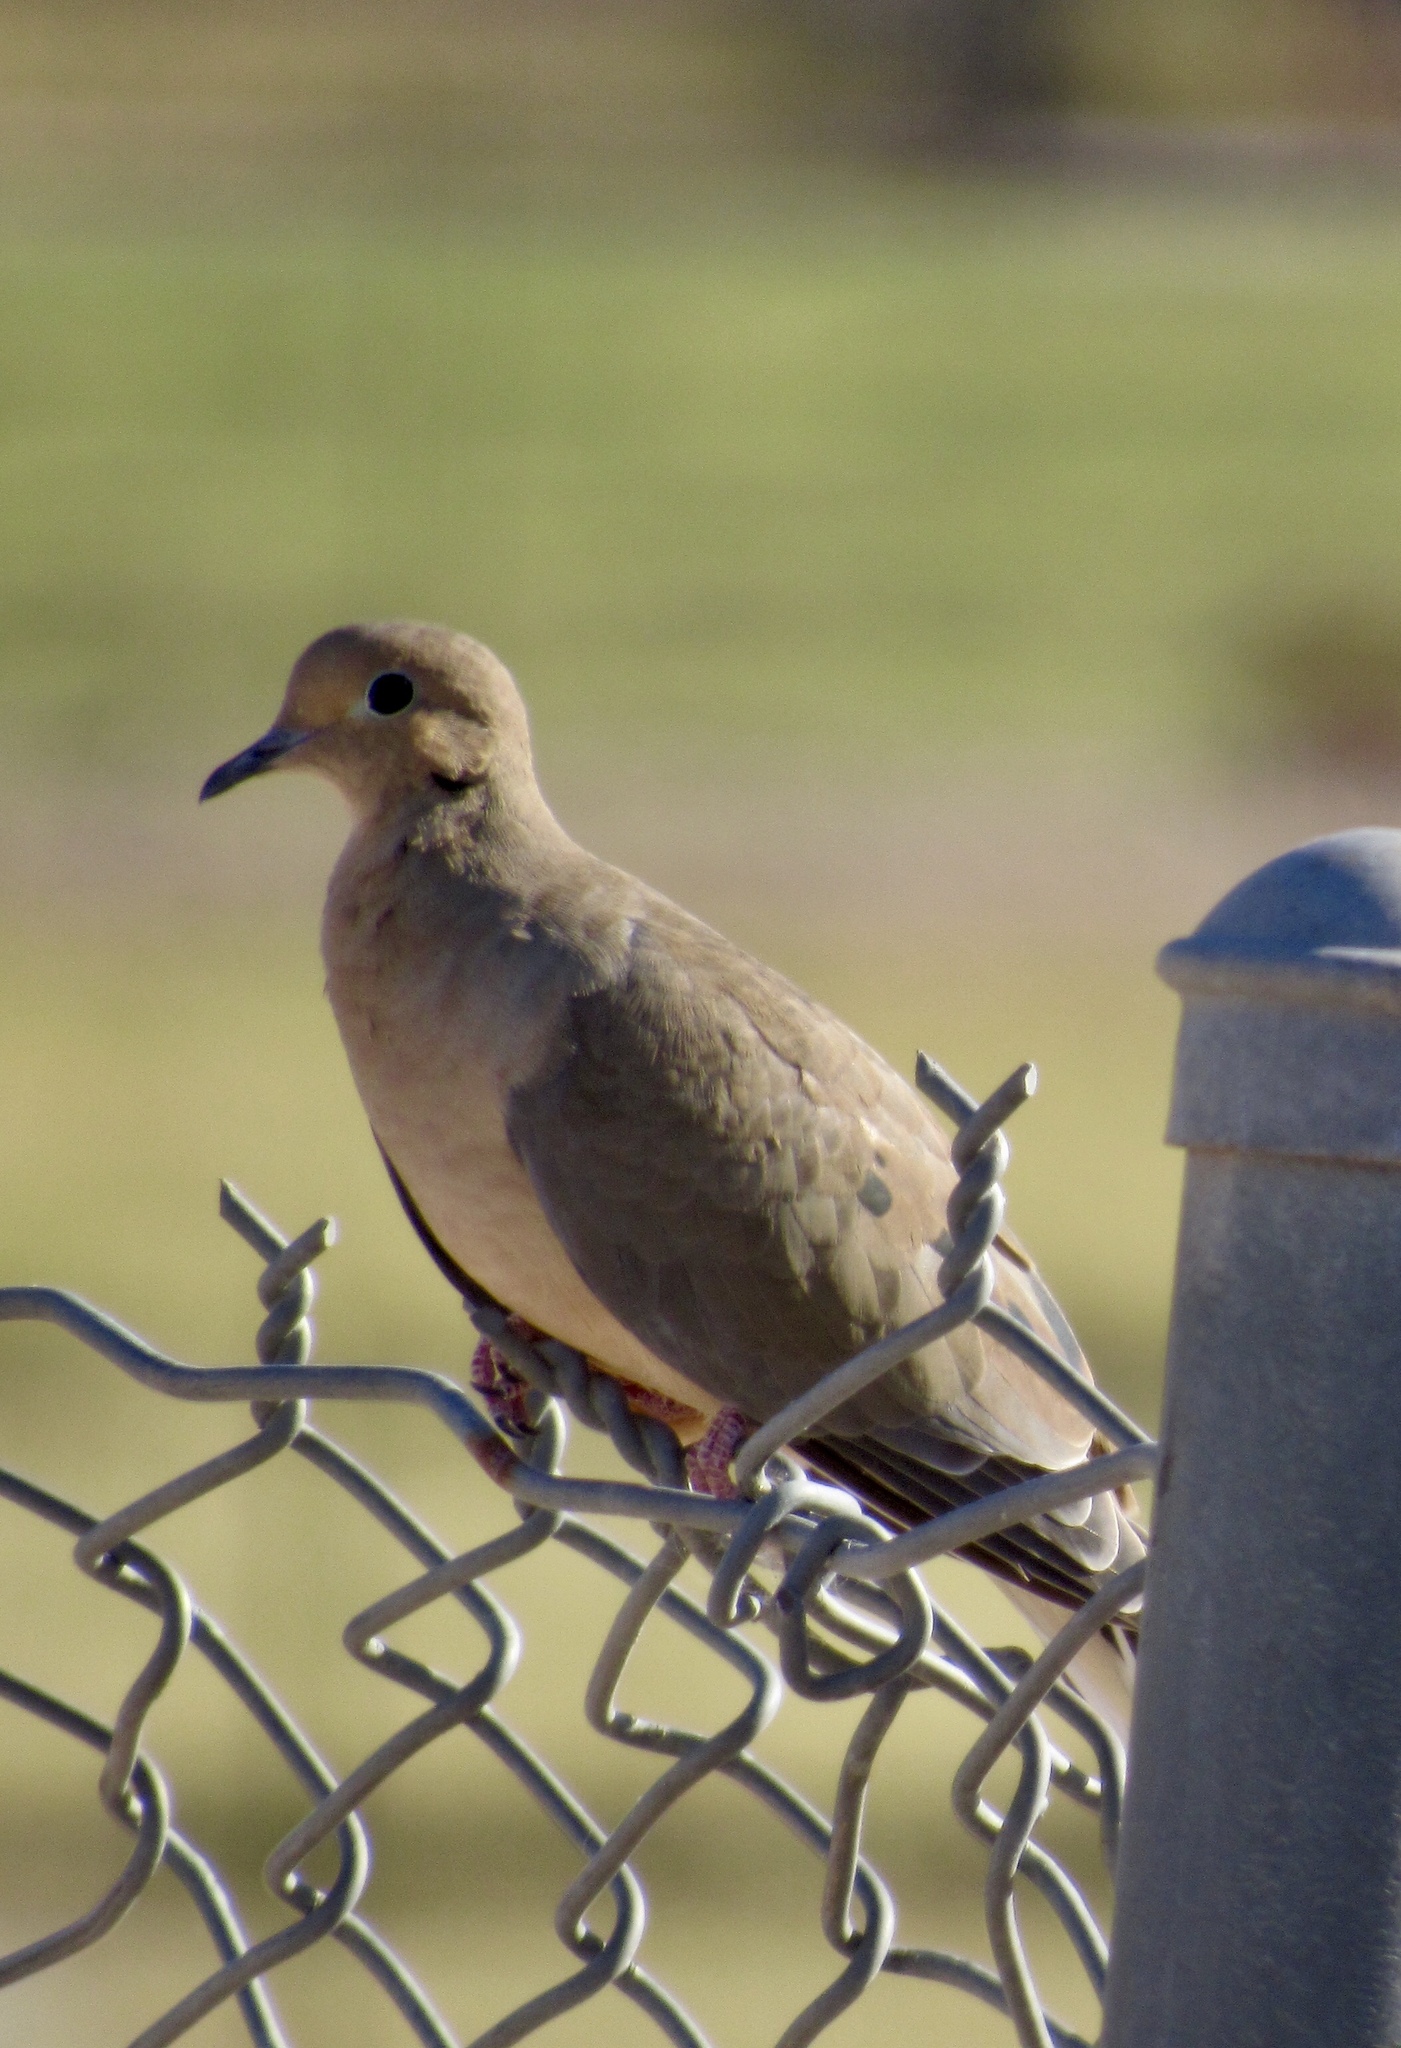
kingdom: Animalia
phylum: Chordata
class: Aves
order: Columbiformes
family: Columbidae
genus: Zenaida
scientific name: Zenaida macroura
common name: Mourning dove
